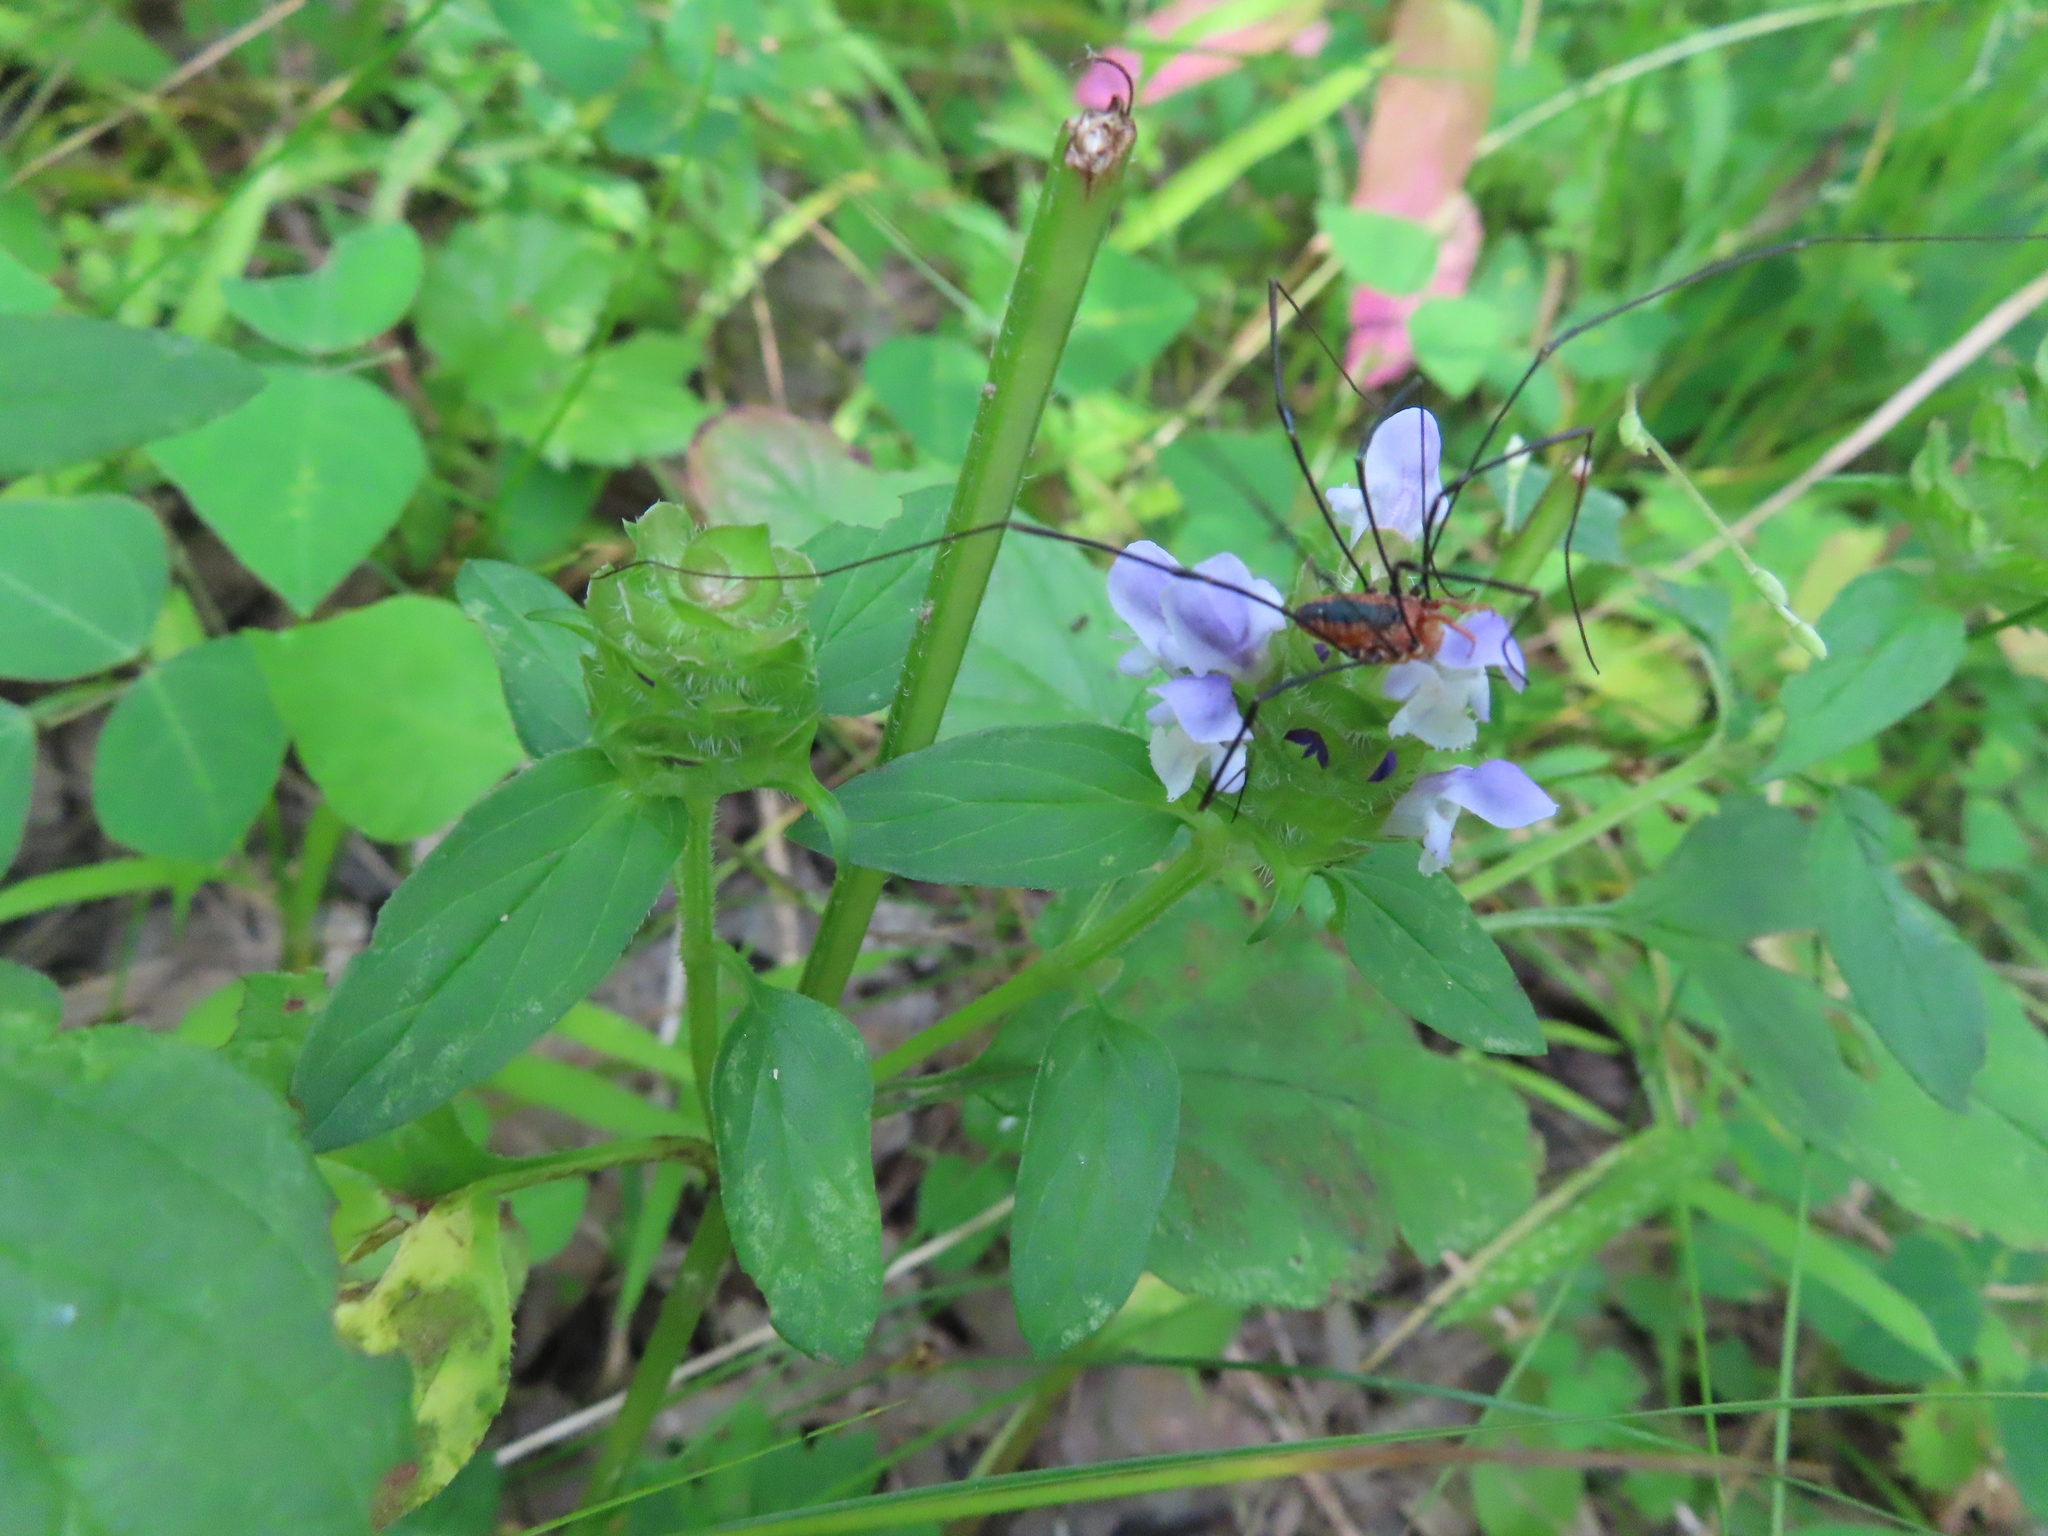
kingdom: Animalia
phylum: Arthropoda
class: Arachnida
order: Opiliones
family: Sclerosomatidae
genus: Leiobunum
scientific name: Leiobunum vittatum
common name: Eastern harvestman
